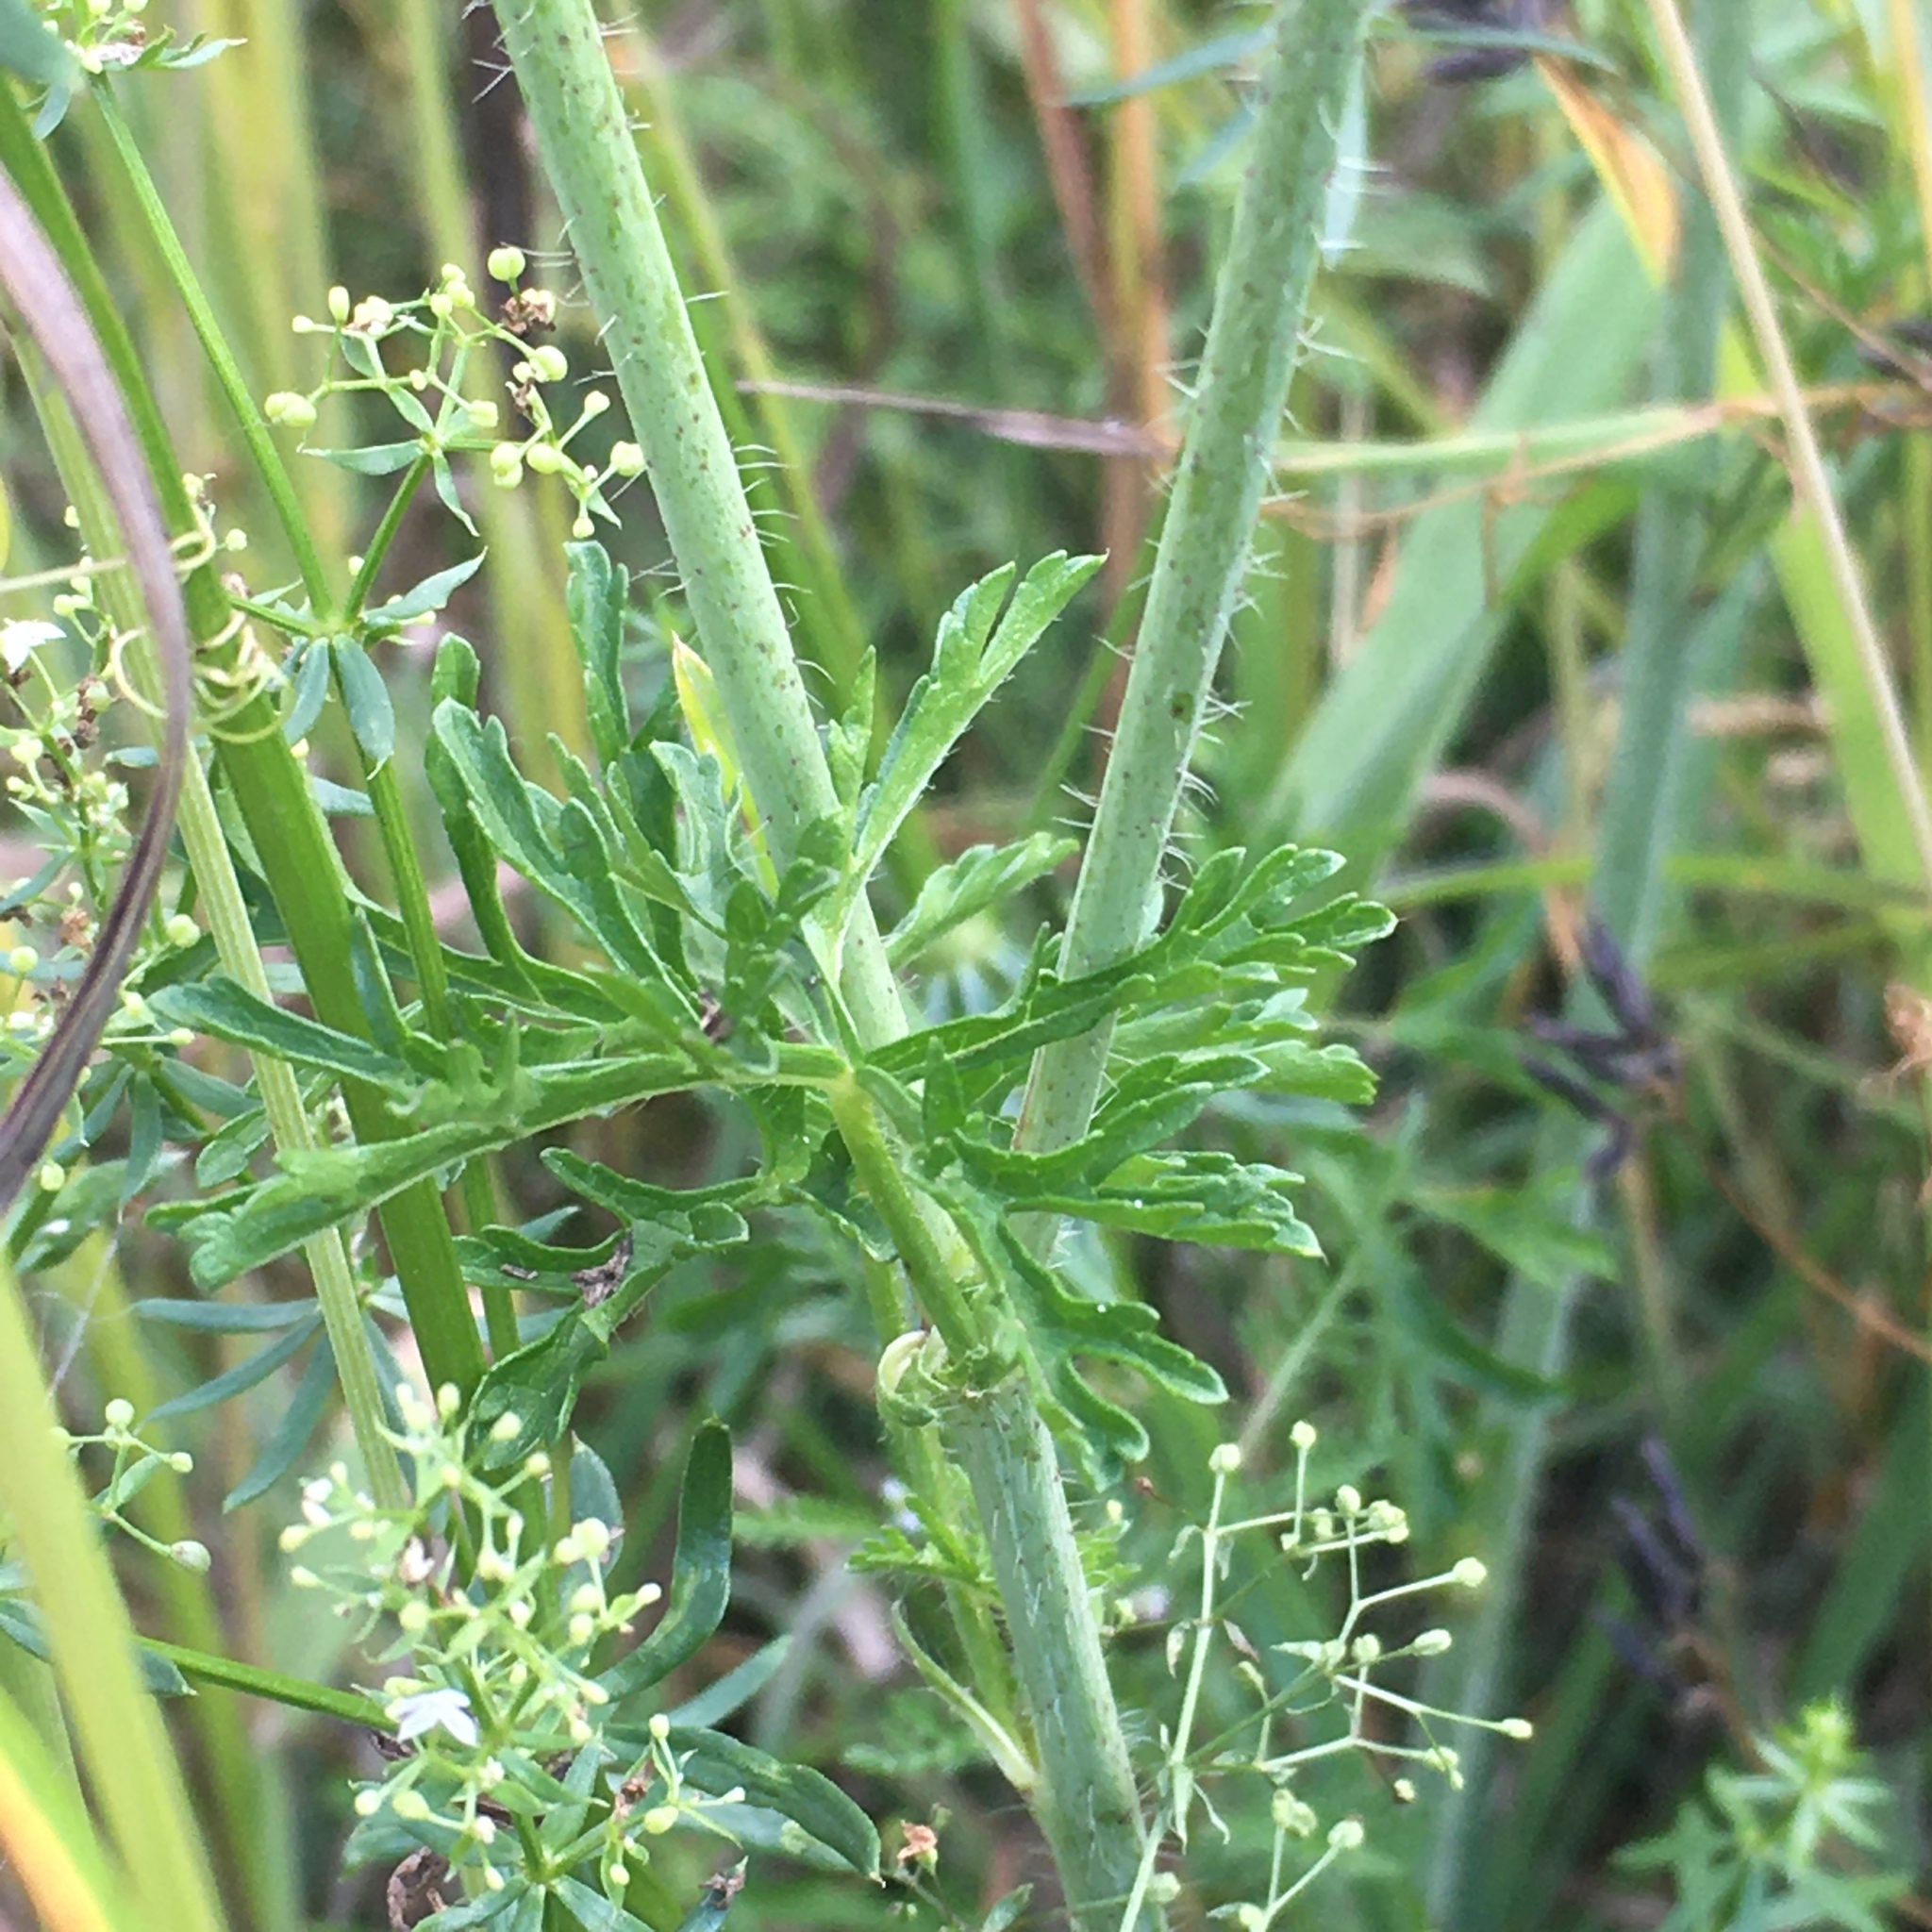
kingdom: Plantae
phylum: Tracheophyta
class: Magnoliopsida
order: Malvales
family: Malvaceae
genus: Malva
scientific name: Malva moschata
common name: Musk mallow
